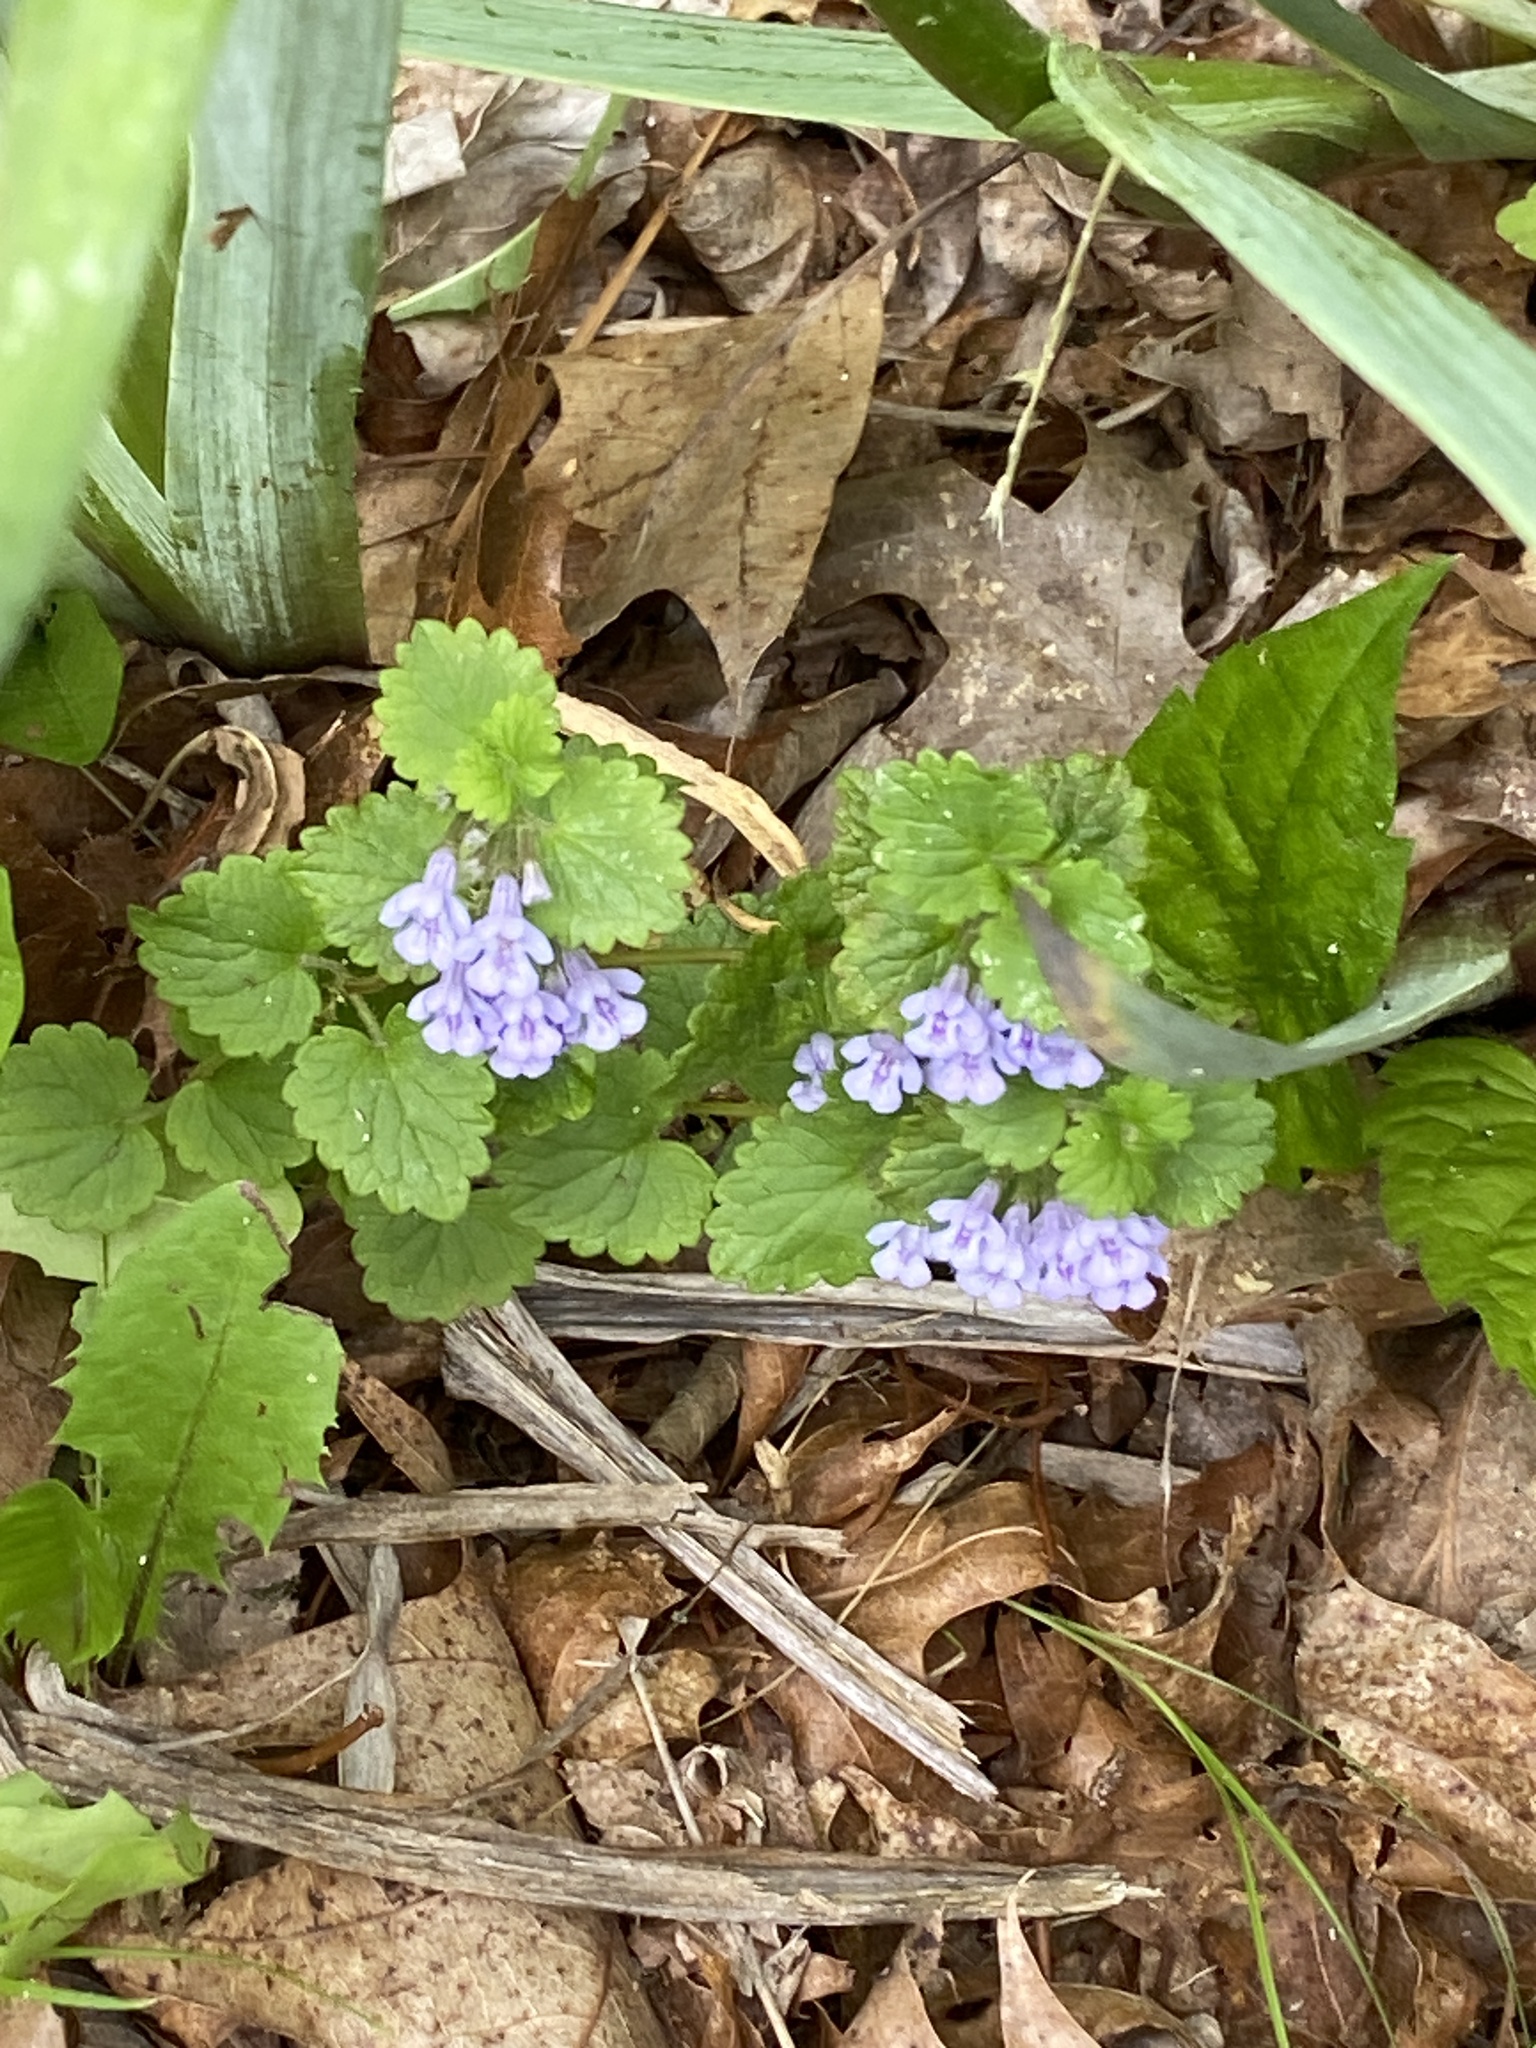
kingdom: Plantae
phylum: Tracheophyta
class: Magnoliopsida
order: Lamiales
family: Lamiaceae
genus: Glechoma
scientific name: Glechoma hederacea
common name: Ground ivy
